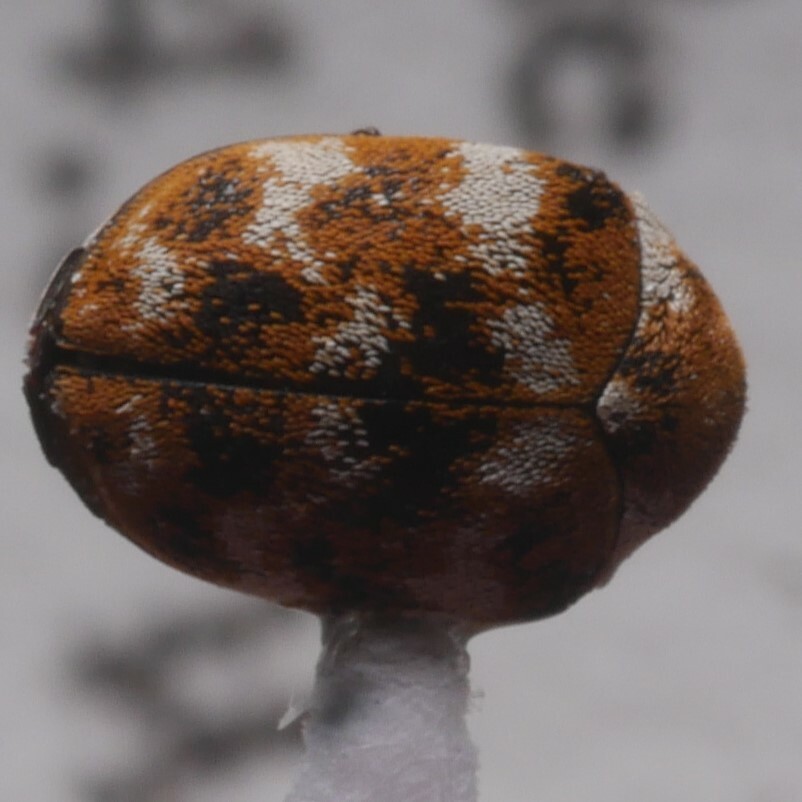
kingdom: Animalia
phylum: Arthropoda
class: Insecta
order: Coleoptera
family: Dermestidae
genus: Anthrenus
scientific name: Anthrenus verbasci
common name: Varied carpet beetle
